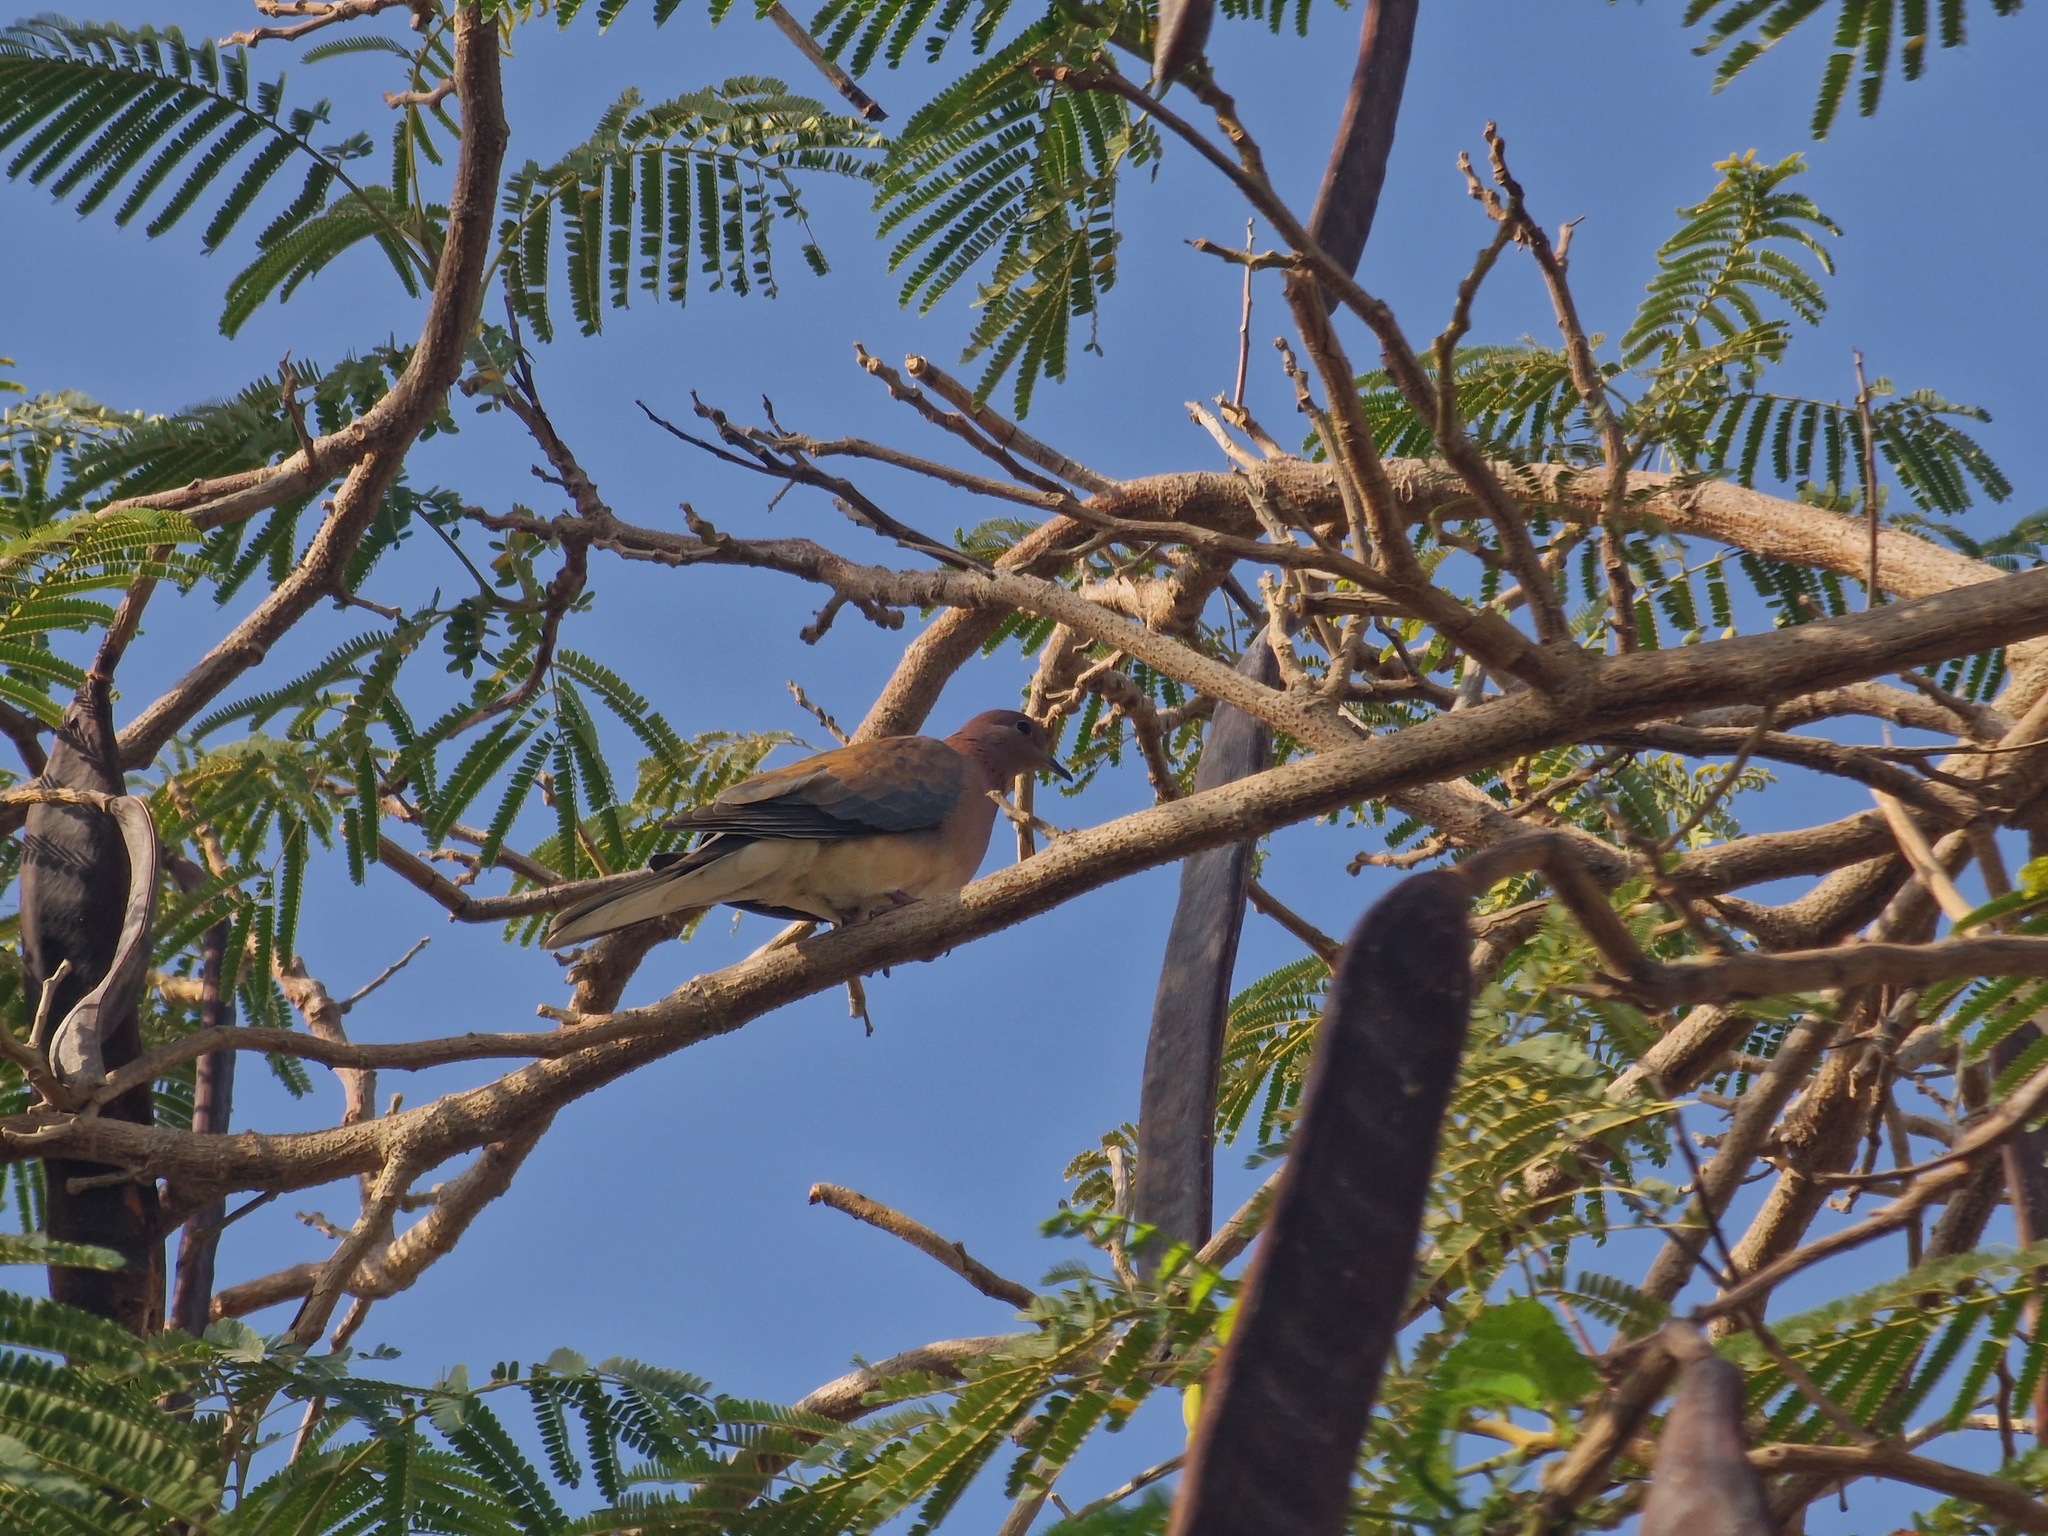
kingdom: Animalia
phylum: Chordata
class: Aves
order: Columbiformes
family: Columbidae
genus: Spilopelia
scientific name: Spilopelia senegalensis
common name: Laughing dove
